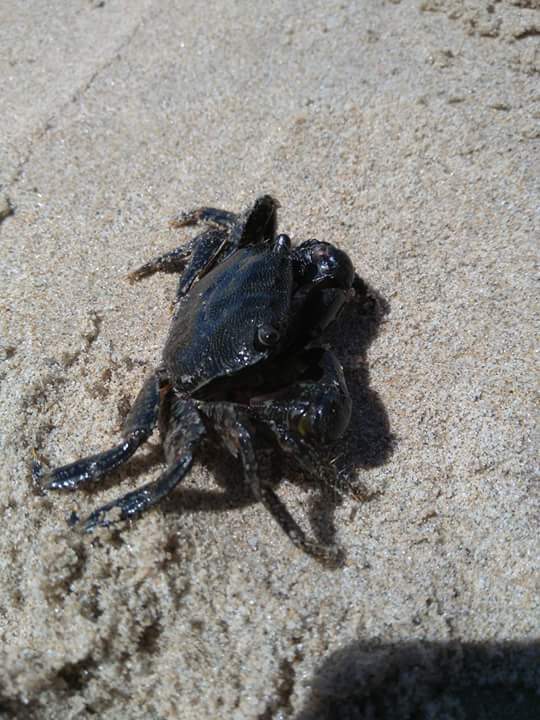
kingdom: Animalia
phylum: Arthropoda
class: Malacostraca
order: Decapoda
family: Grapsidae
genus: Pachygrapsus
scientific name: Pachygrapsus marmoratus
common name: Marbled rock crab
